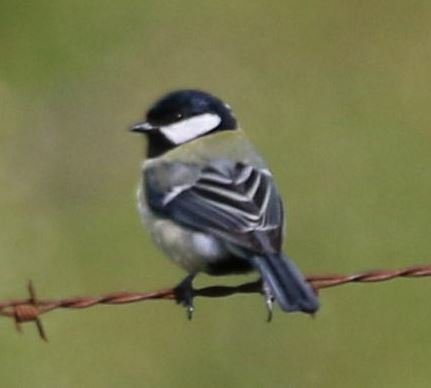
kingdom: Animalia
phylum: Chordata
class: Aves
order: Passeriformes
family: Paridae
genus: Parus
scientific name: Parus major
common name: Great tit
